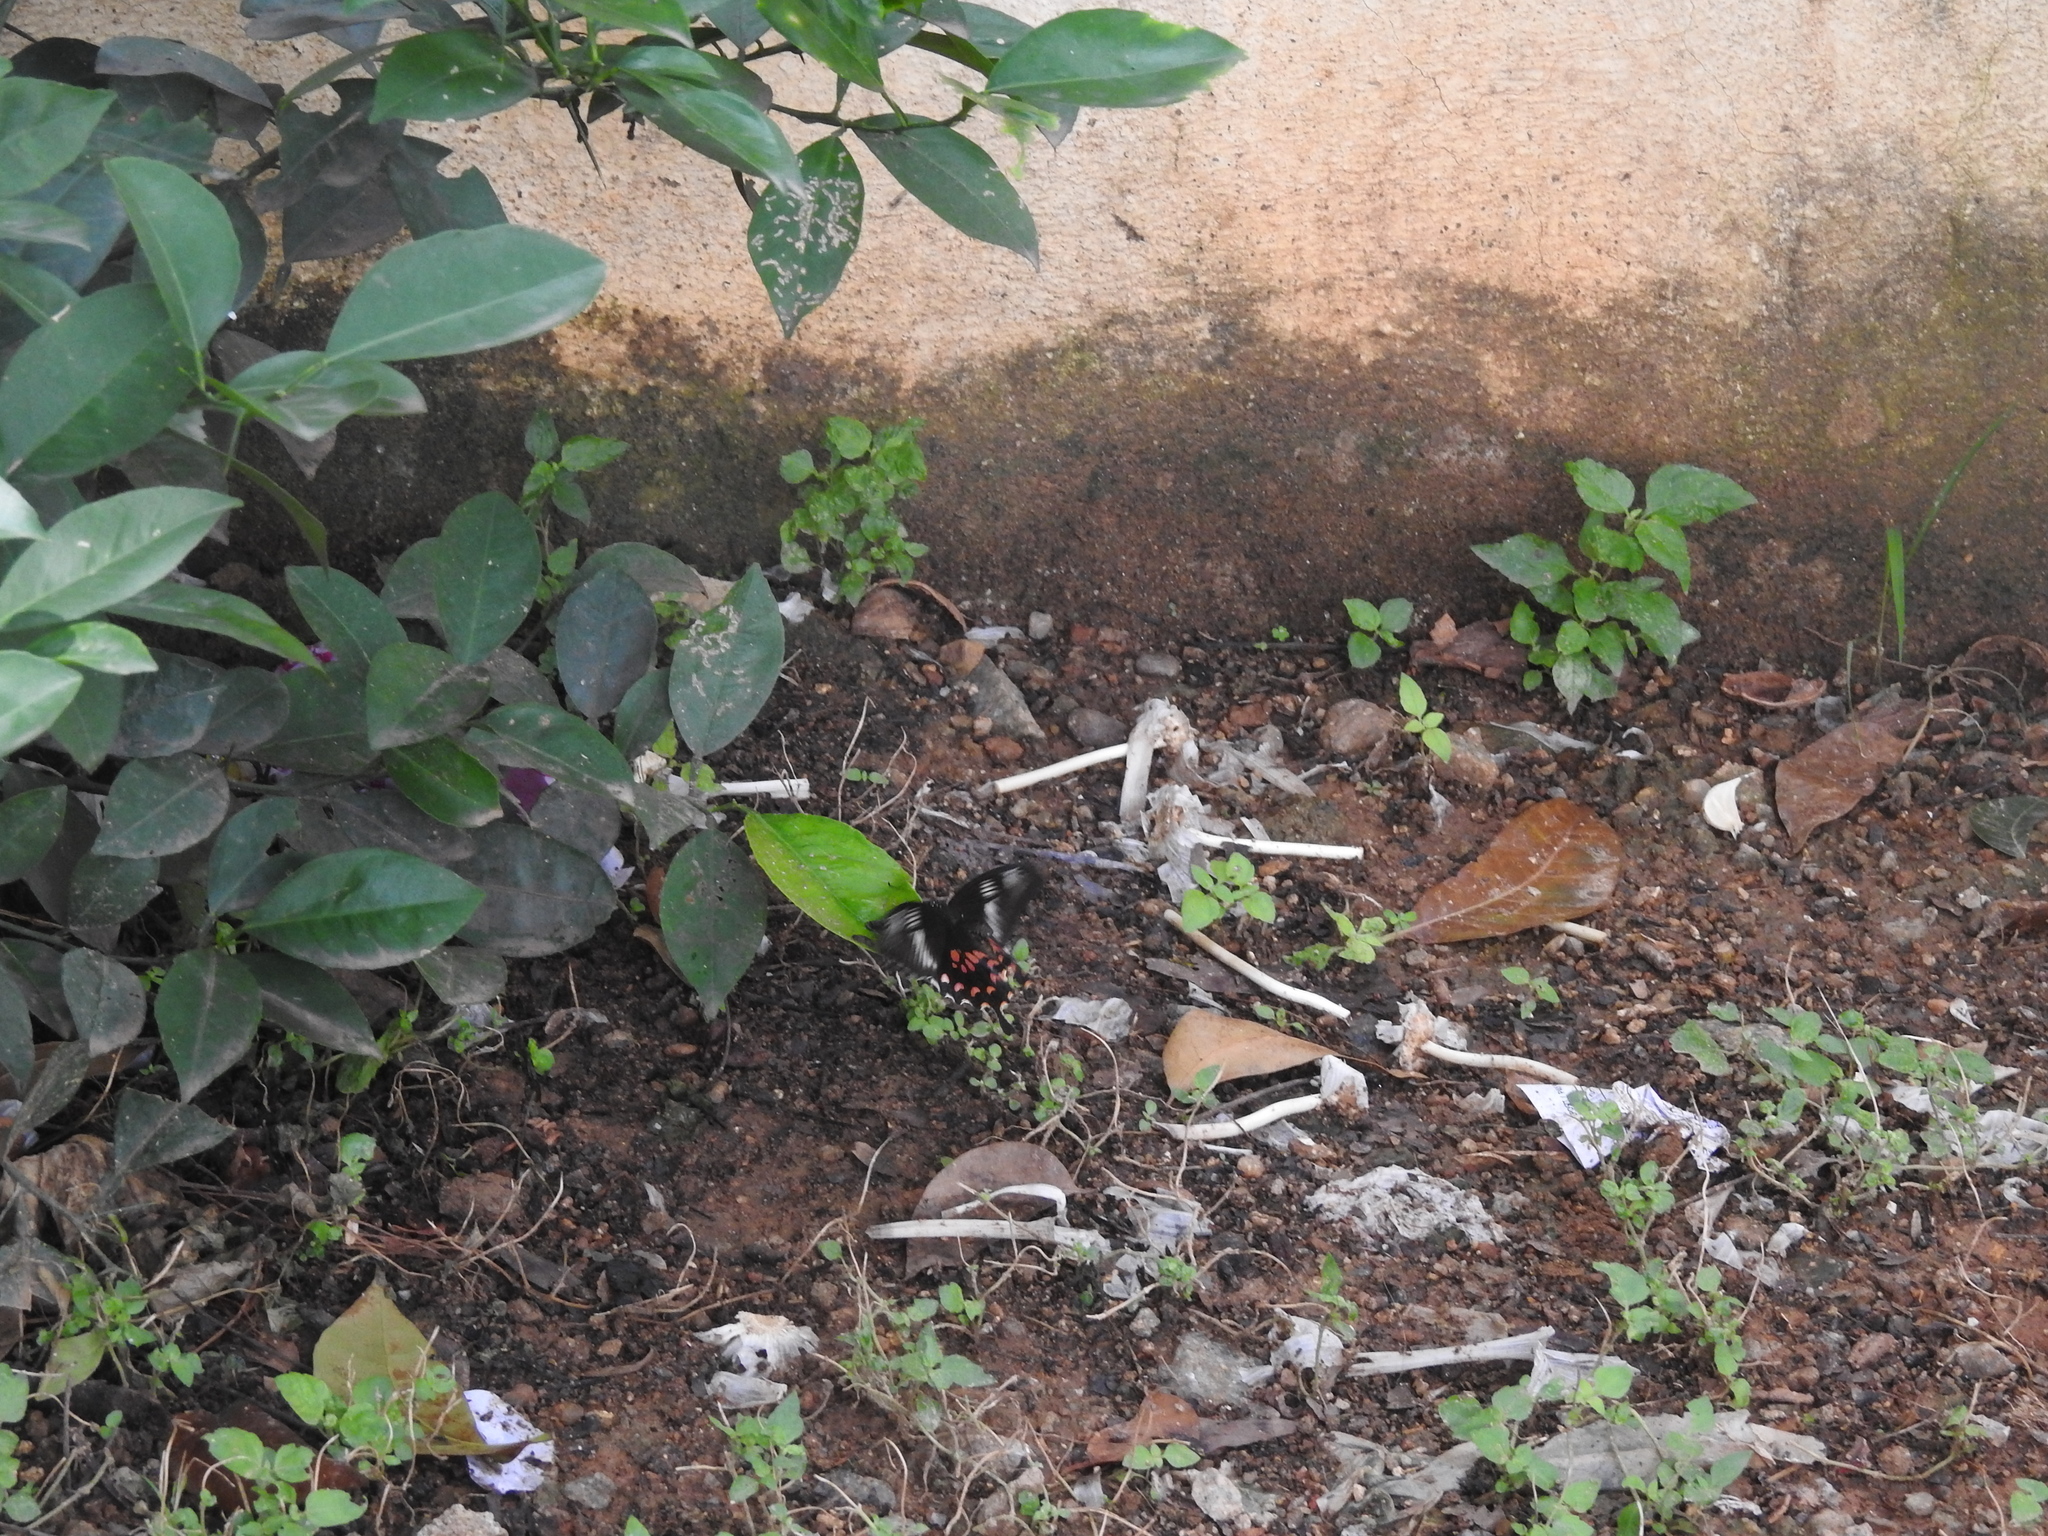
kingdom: Animalia
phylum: Arthropoda
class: Insecta
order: Lepidoptera
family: Papilionidae
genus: Papilio
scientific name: Papilio polytes
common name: Common mormon
